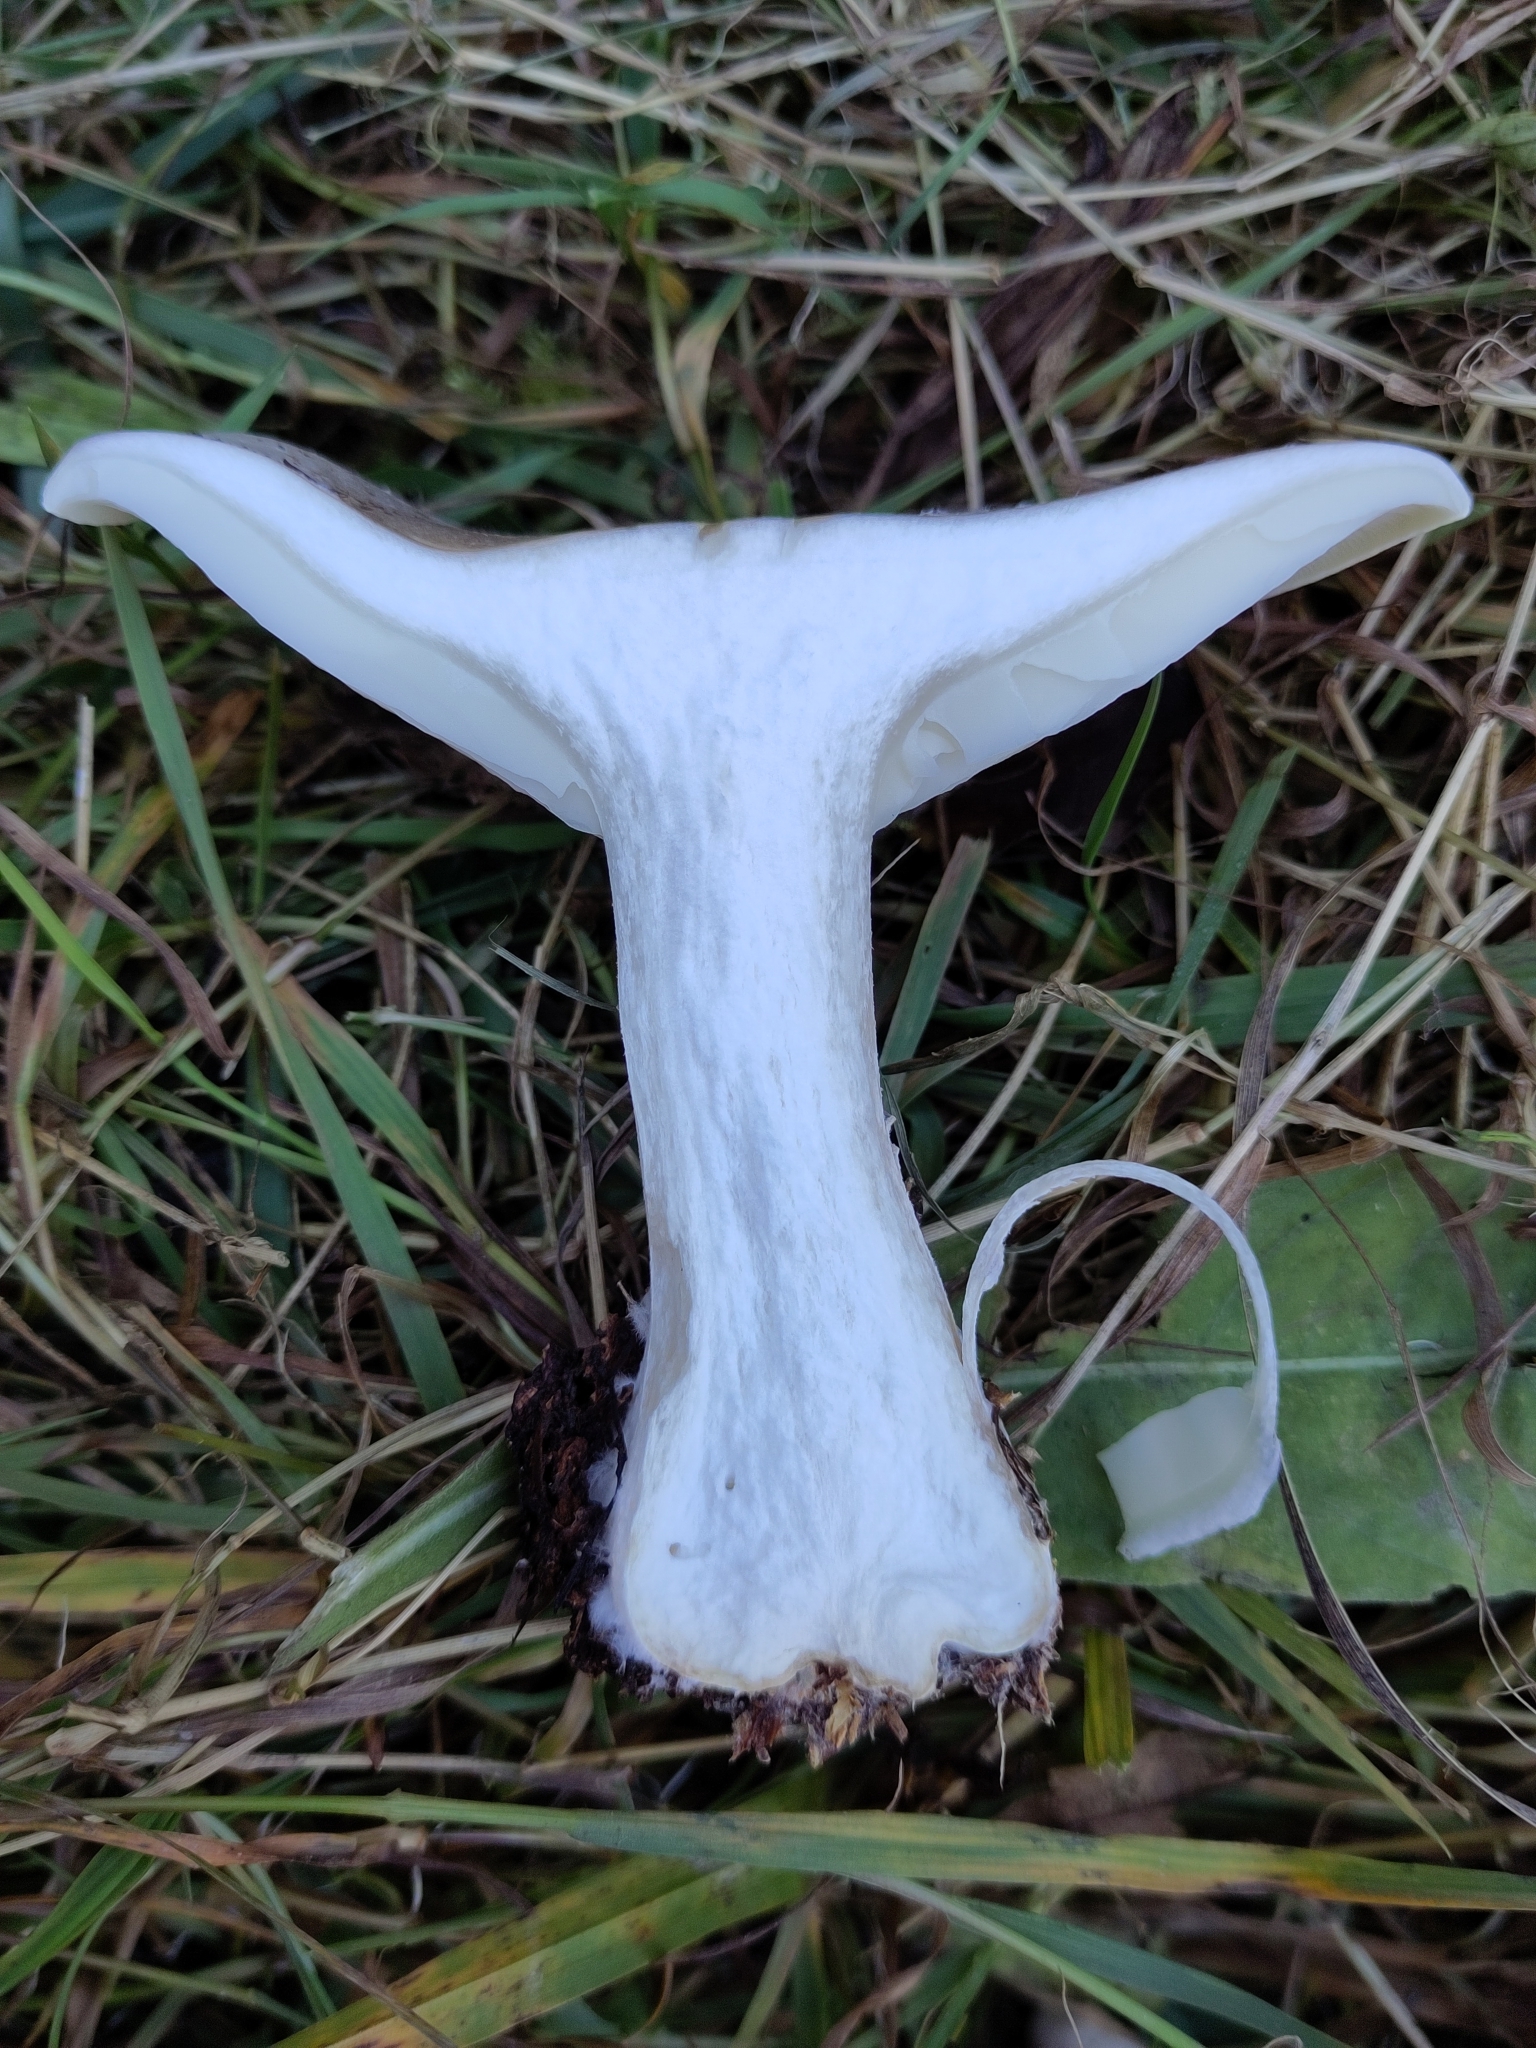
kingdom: Fungi
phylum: Basidiomycota
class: Agaricomycetes
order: Agaricales
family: Tricholomataceae
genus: Clitocybe
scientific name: Clitocybe nebularis
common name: Clouded agaric
